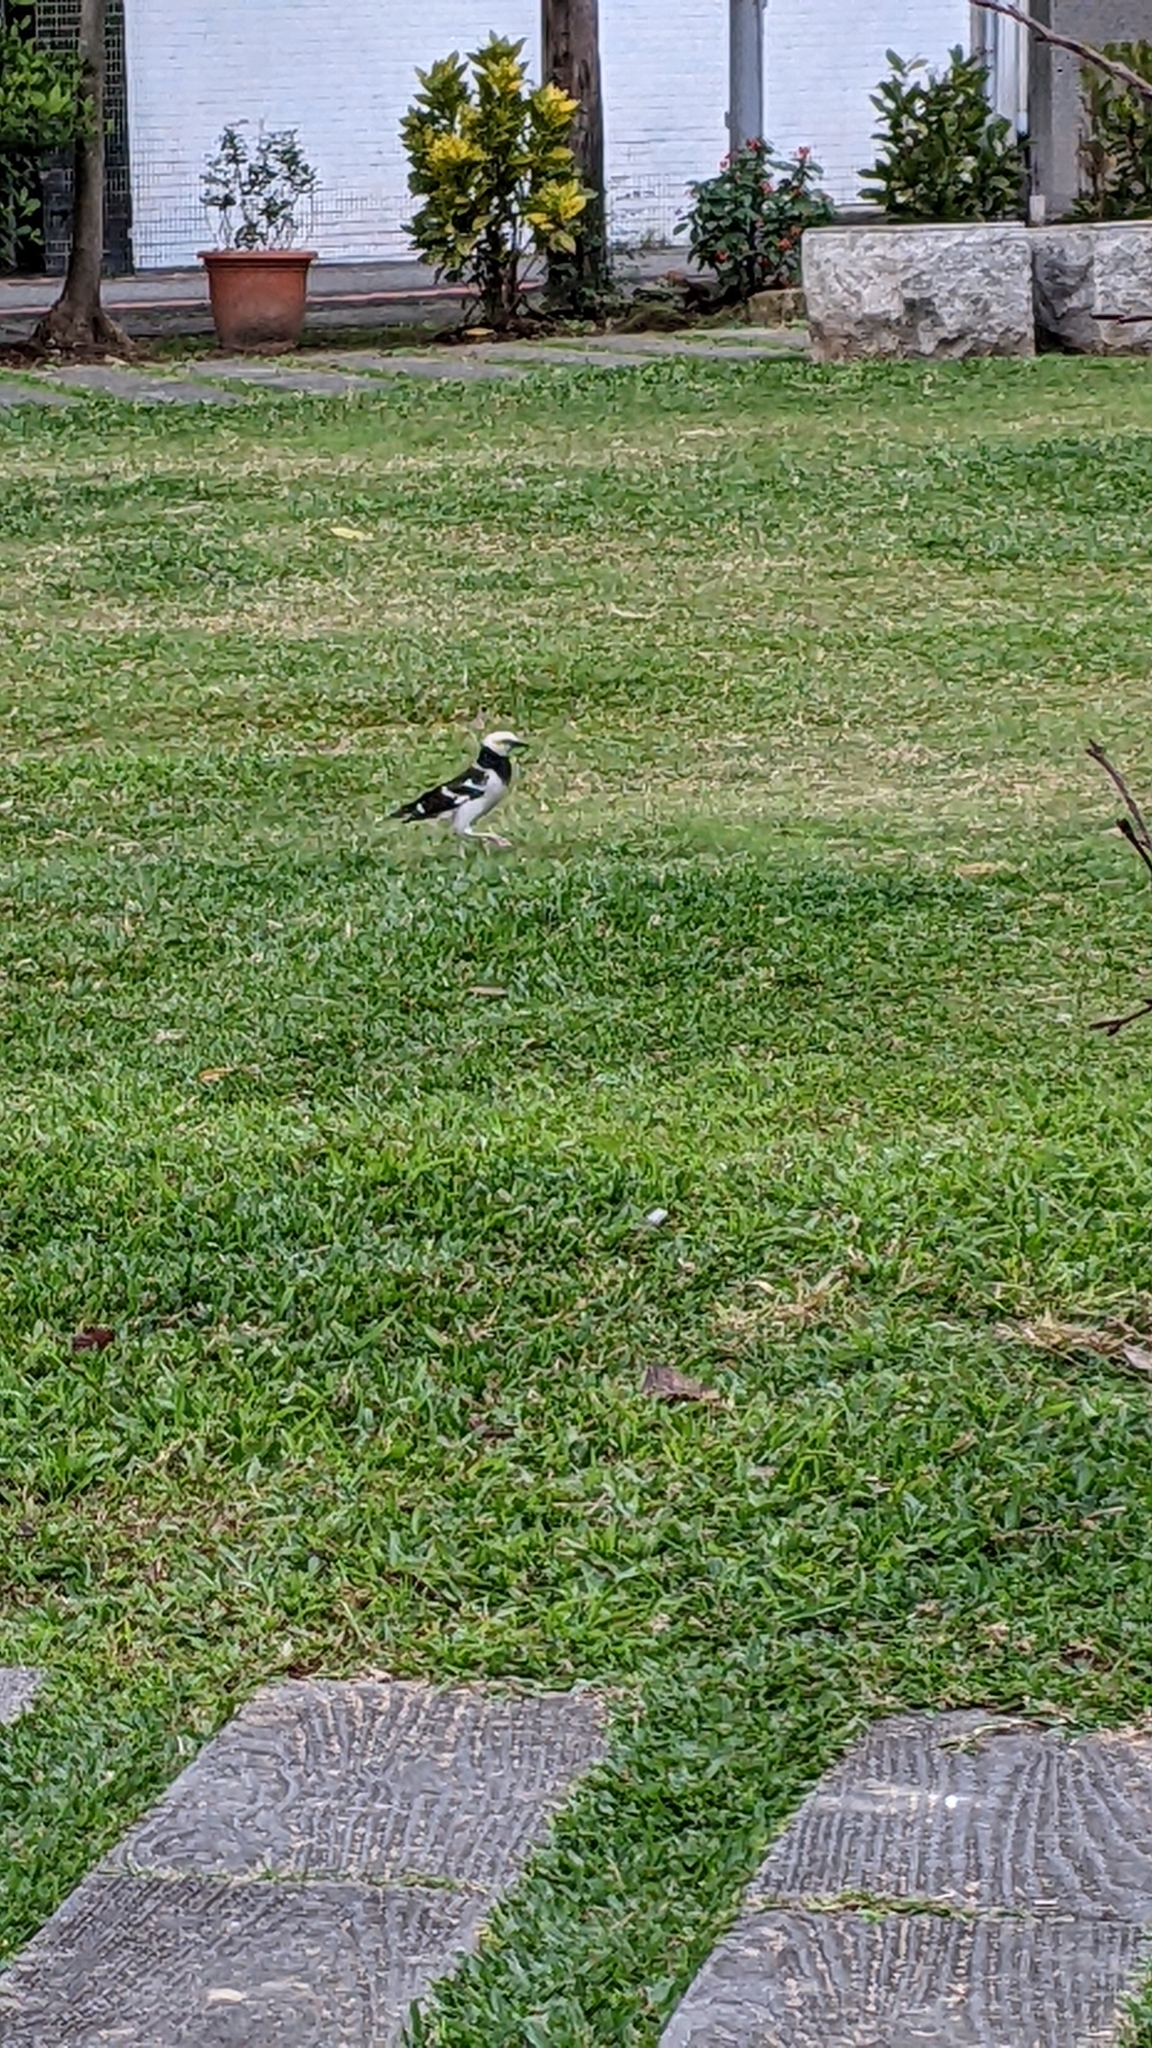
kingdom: Animalia
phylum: Chordata
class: Aves
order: Passeriformes
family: Sturnidae
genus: Gracupica
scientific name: Gracupica nigricollis
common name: Black-collared starling
